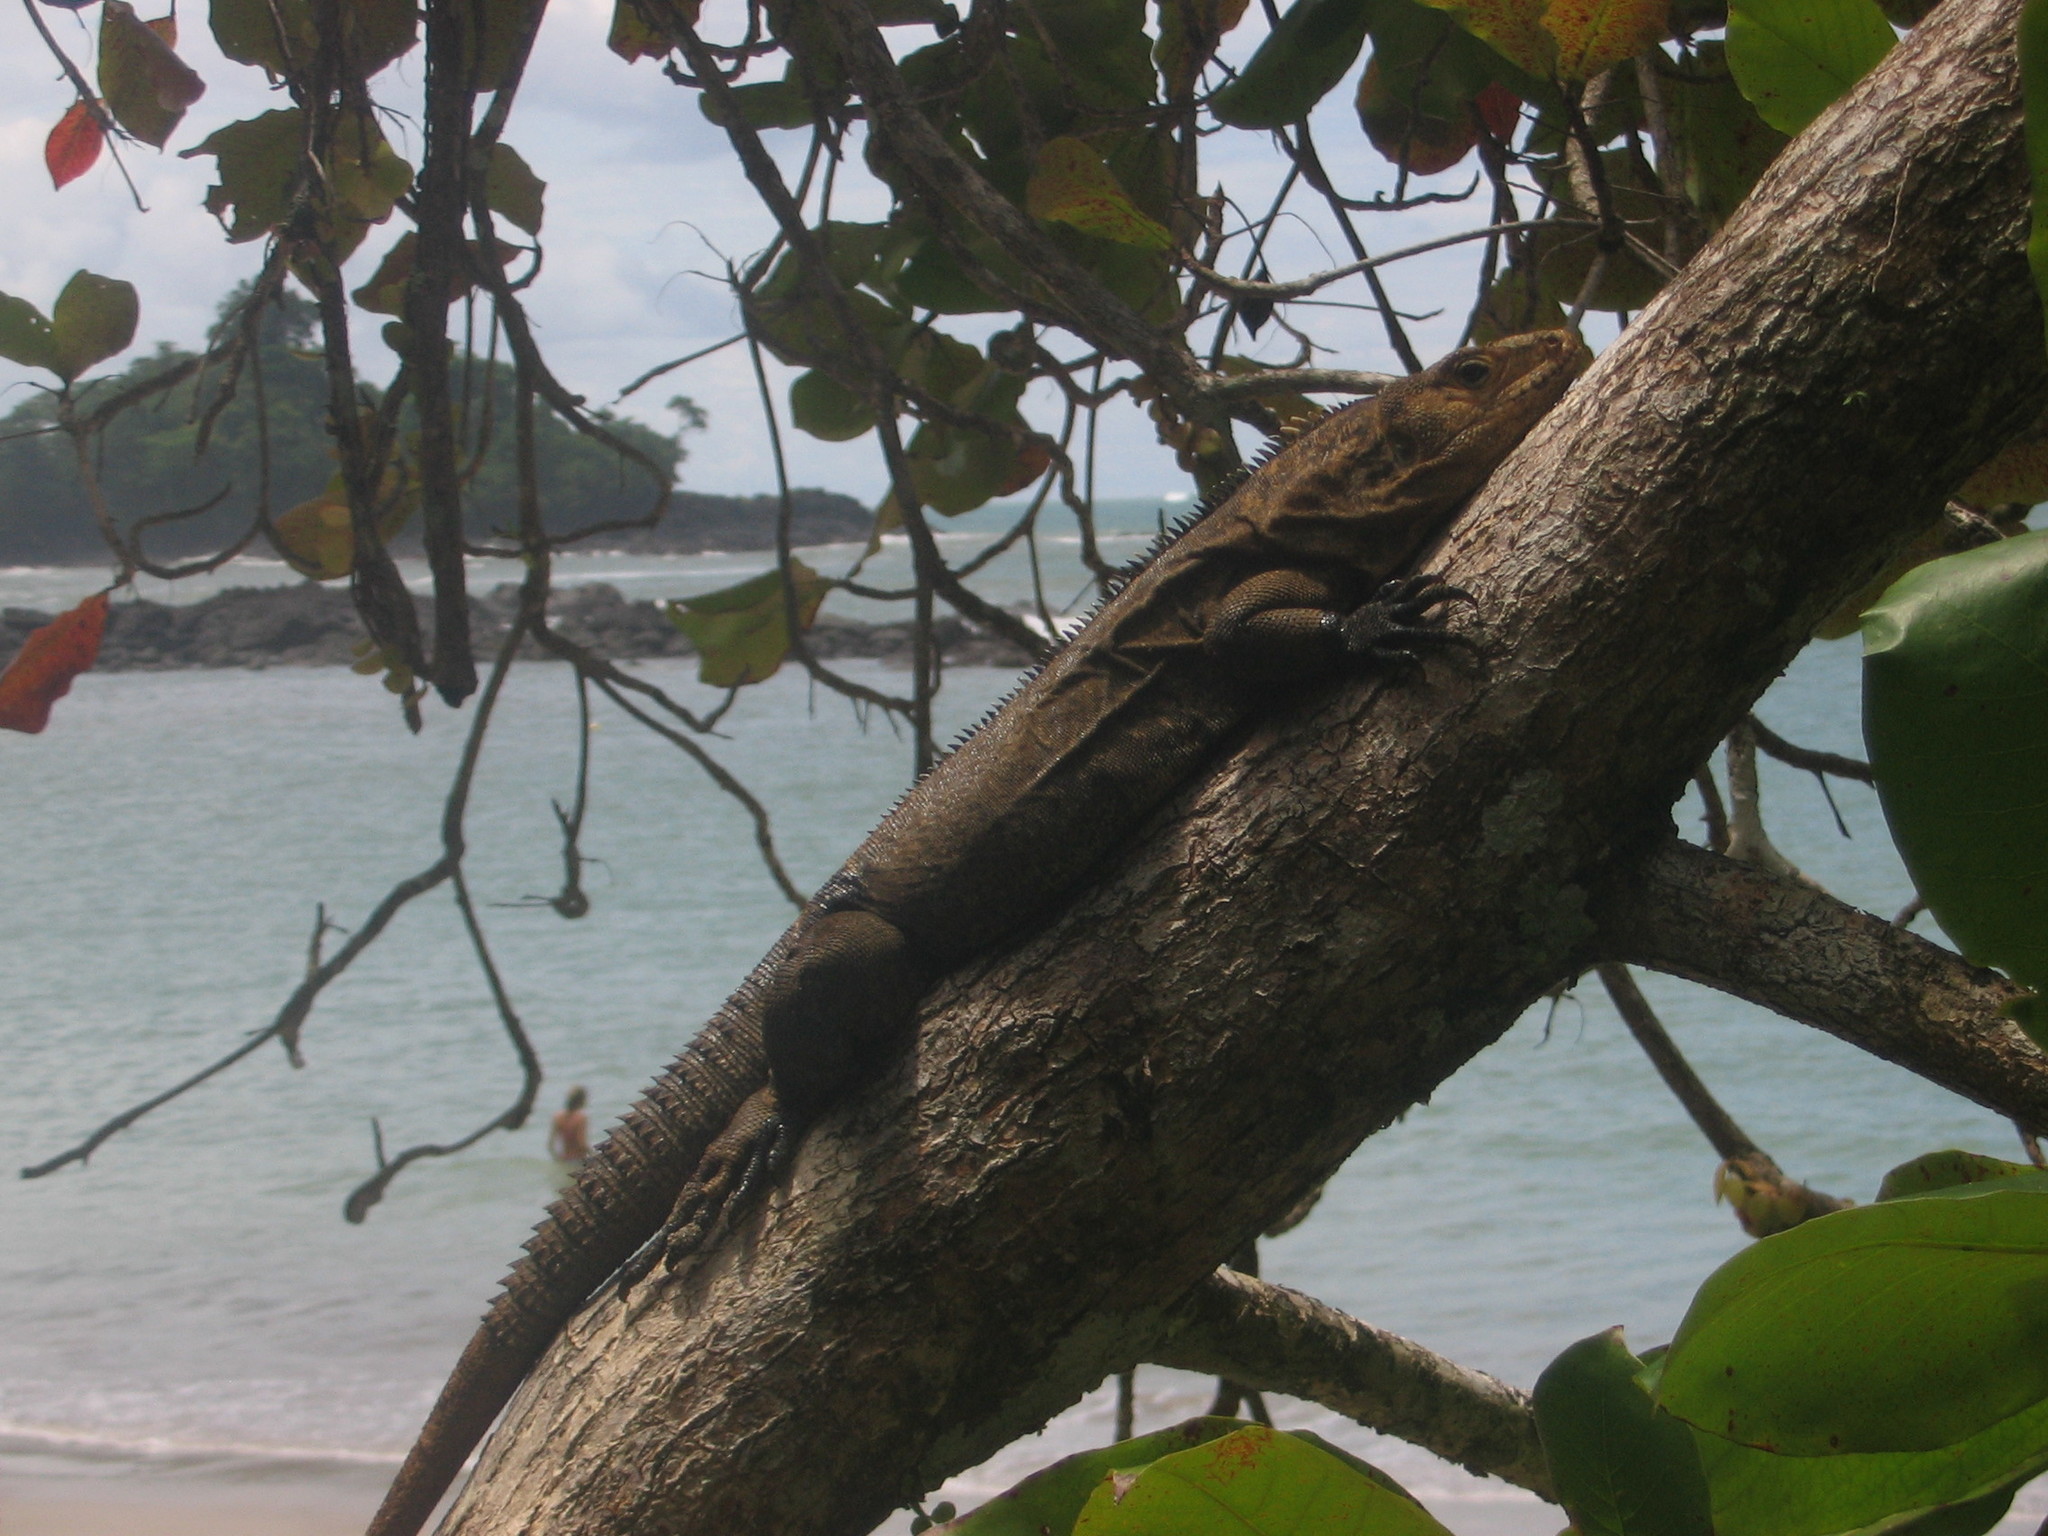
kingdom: Animalia
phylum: Chordata
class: Squamata
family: Iguanidae
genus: Ctenosaura
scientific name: Ctenosaura similis
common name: Black spiny-tailed iguana
